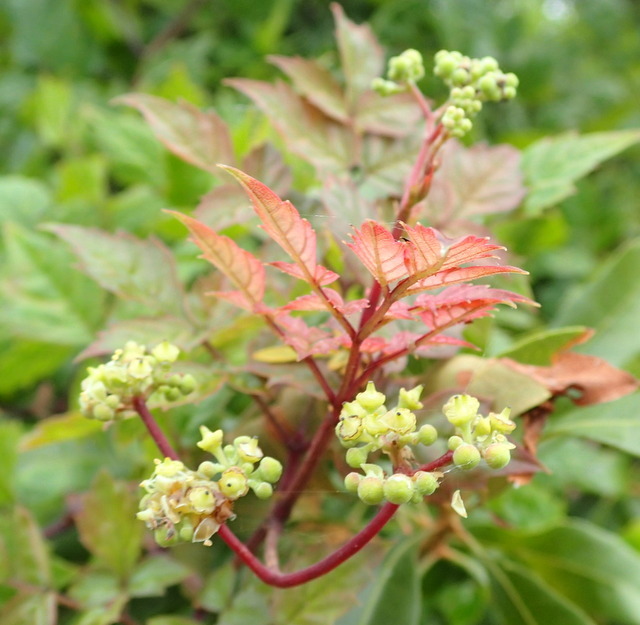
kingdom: Plantae
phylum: Tracheophyta
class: Magnoliopsida
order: Vitales
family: Vitaceae
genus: Nekemias
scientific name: Nekemias arborea
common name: Peppervine
